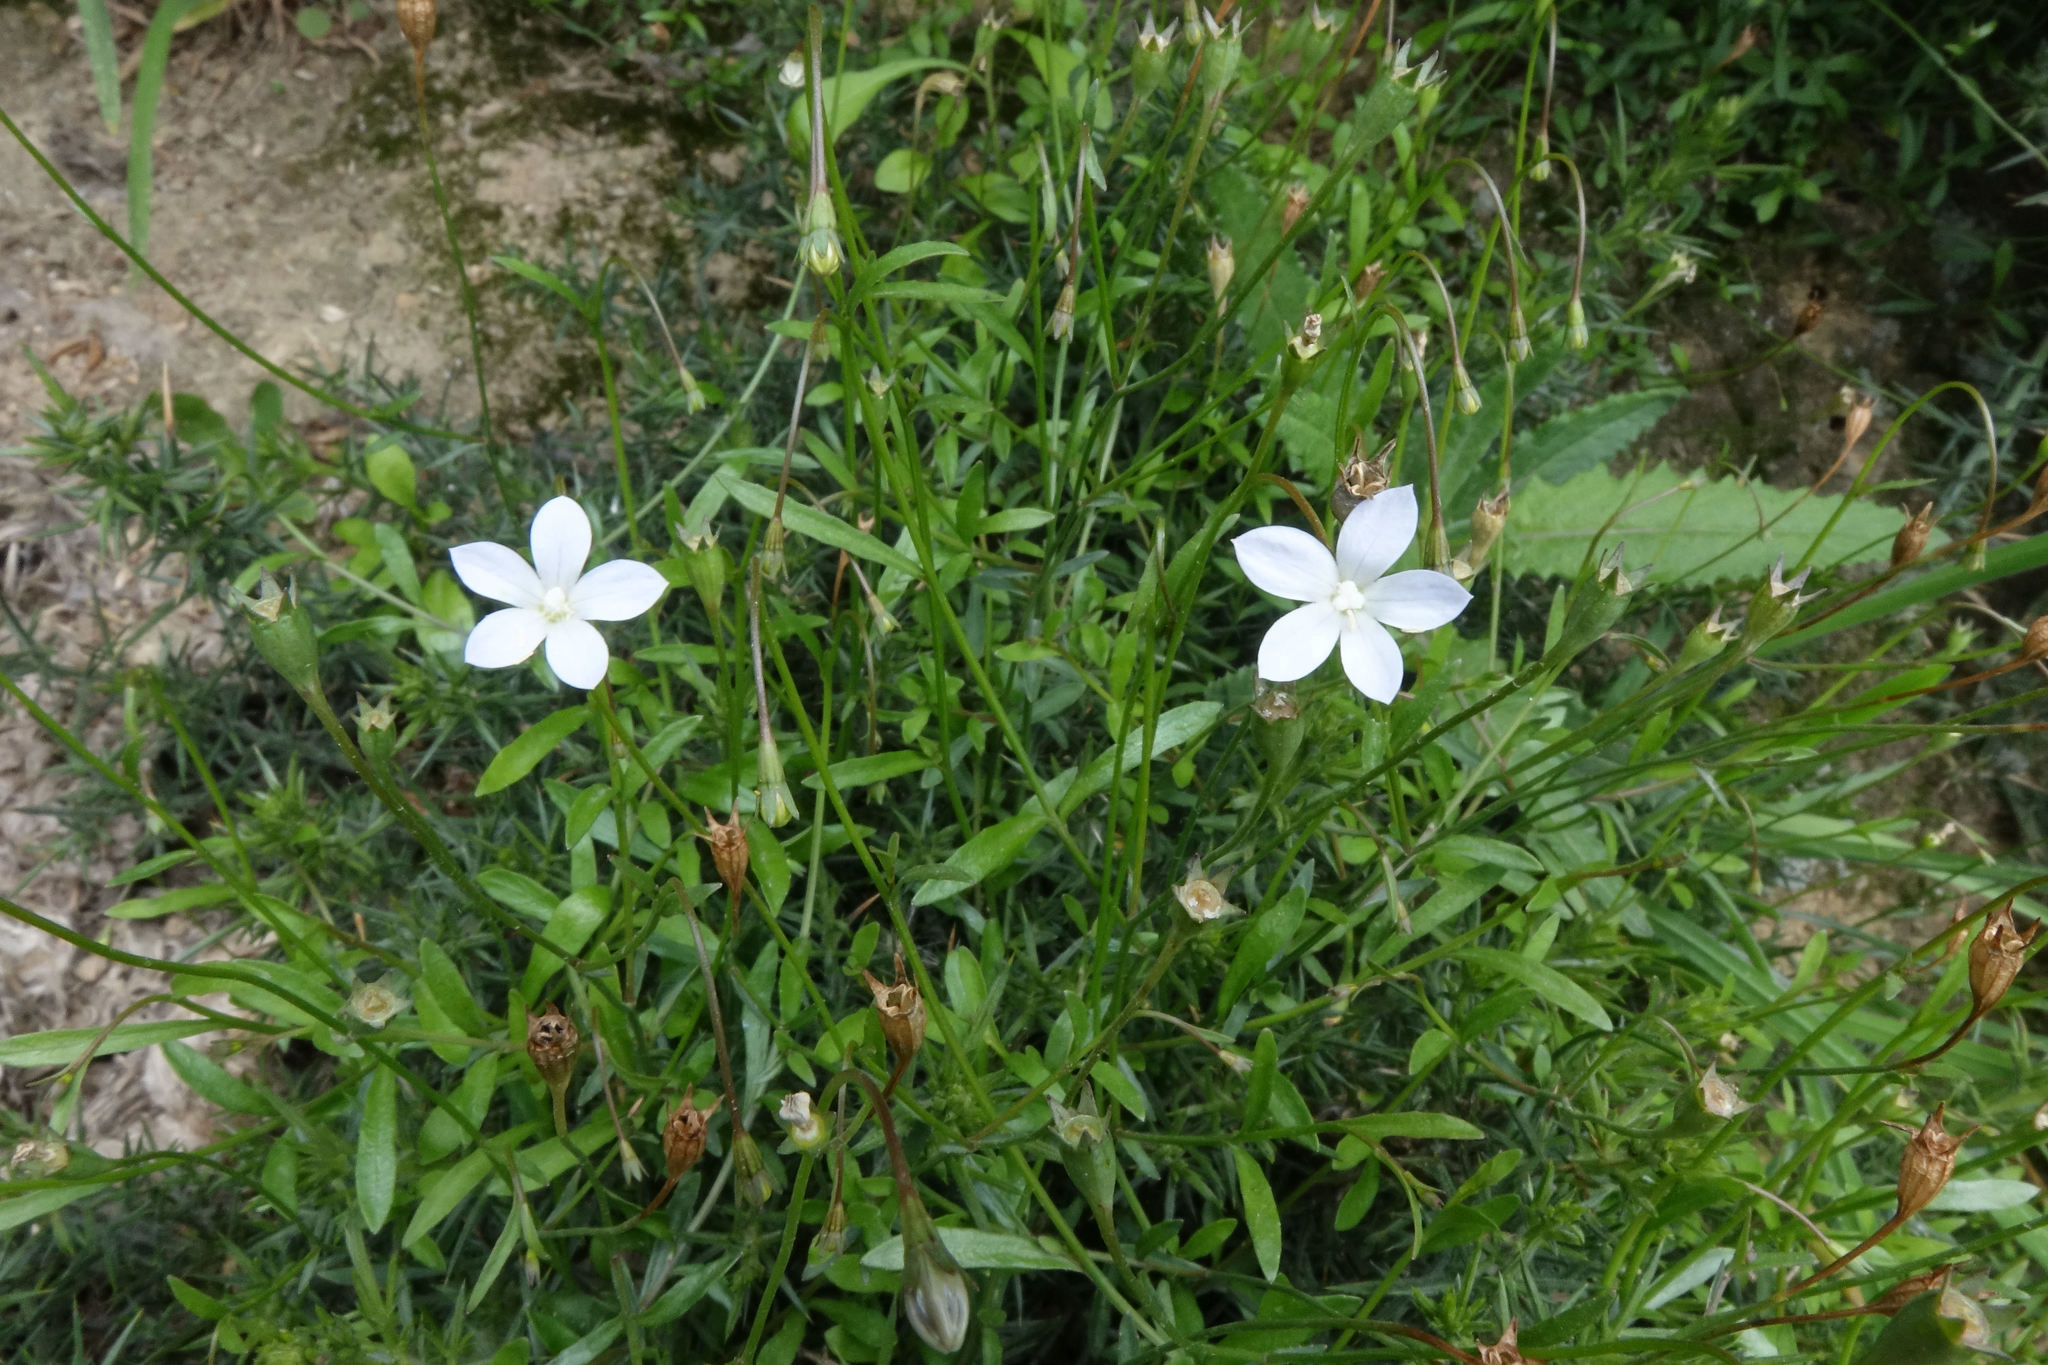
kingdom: Plantae
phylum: Tracheophyta
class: Magnoliopsida
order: Asterales
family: Campanulaceae
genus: Wahlenbergia
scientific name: Wahlenbergia rupestris
